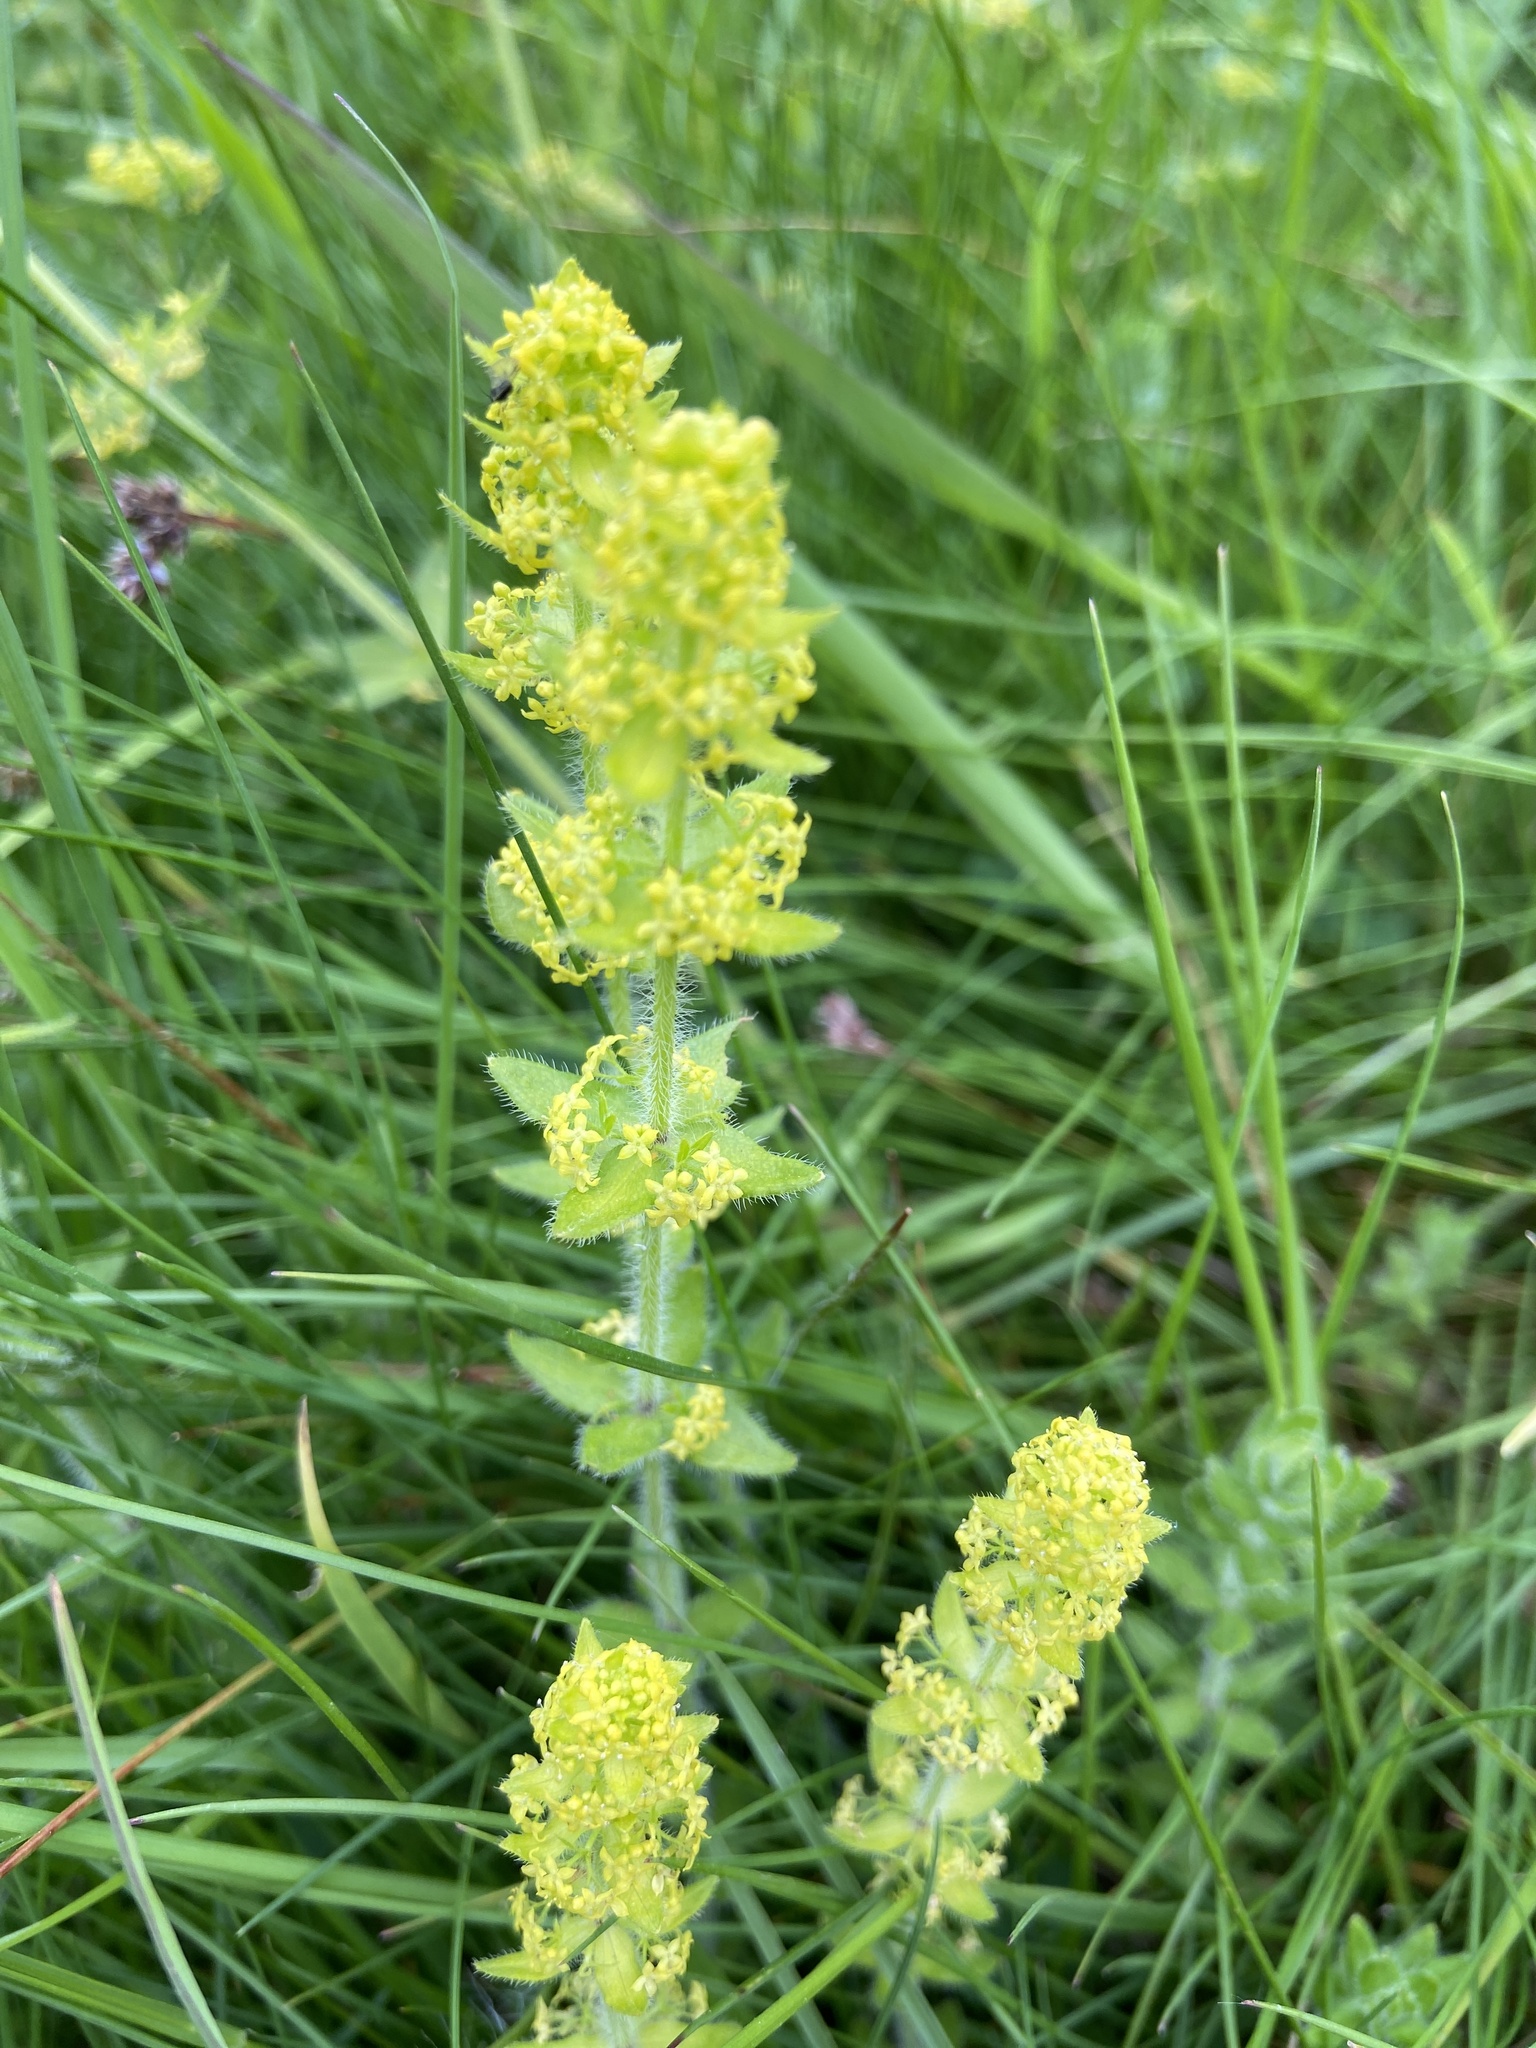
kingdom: Plantae
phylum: Tracheophyta
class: Magnoliopsida
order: Gentianales
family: Rubiaceae
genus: Cruciata
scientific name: Cruciata laevipes
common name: Crosswort
